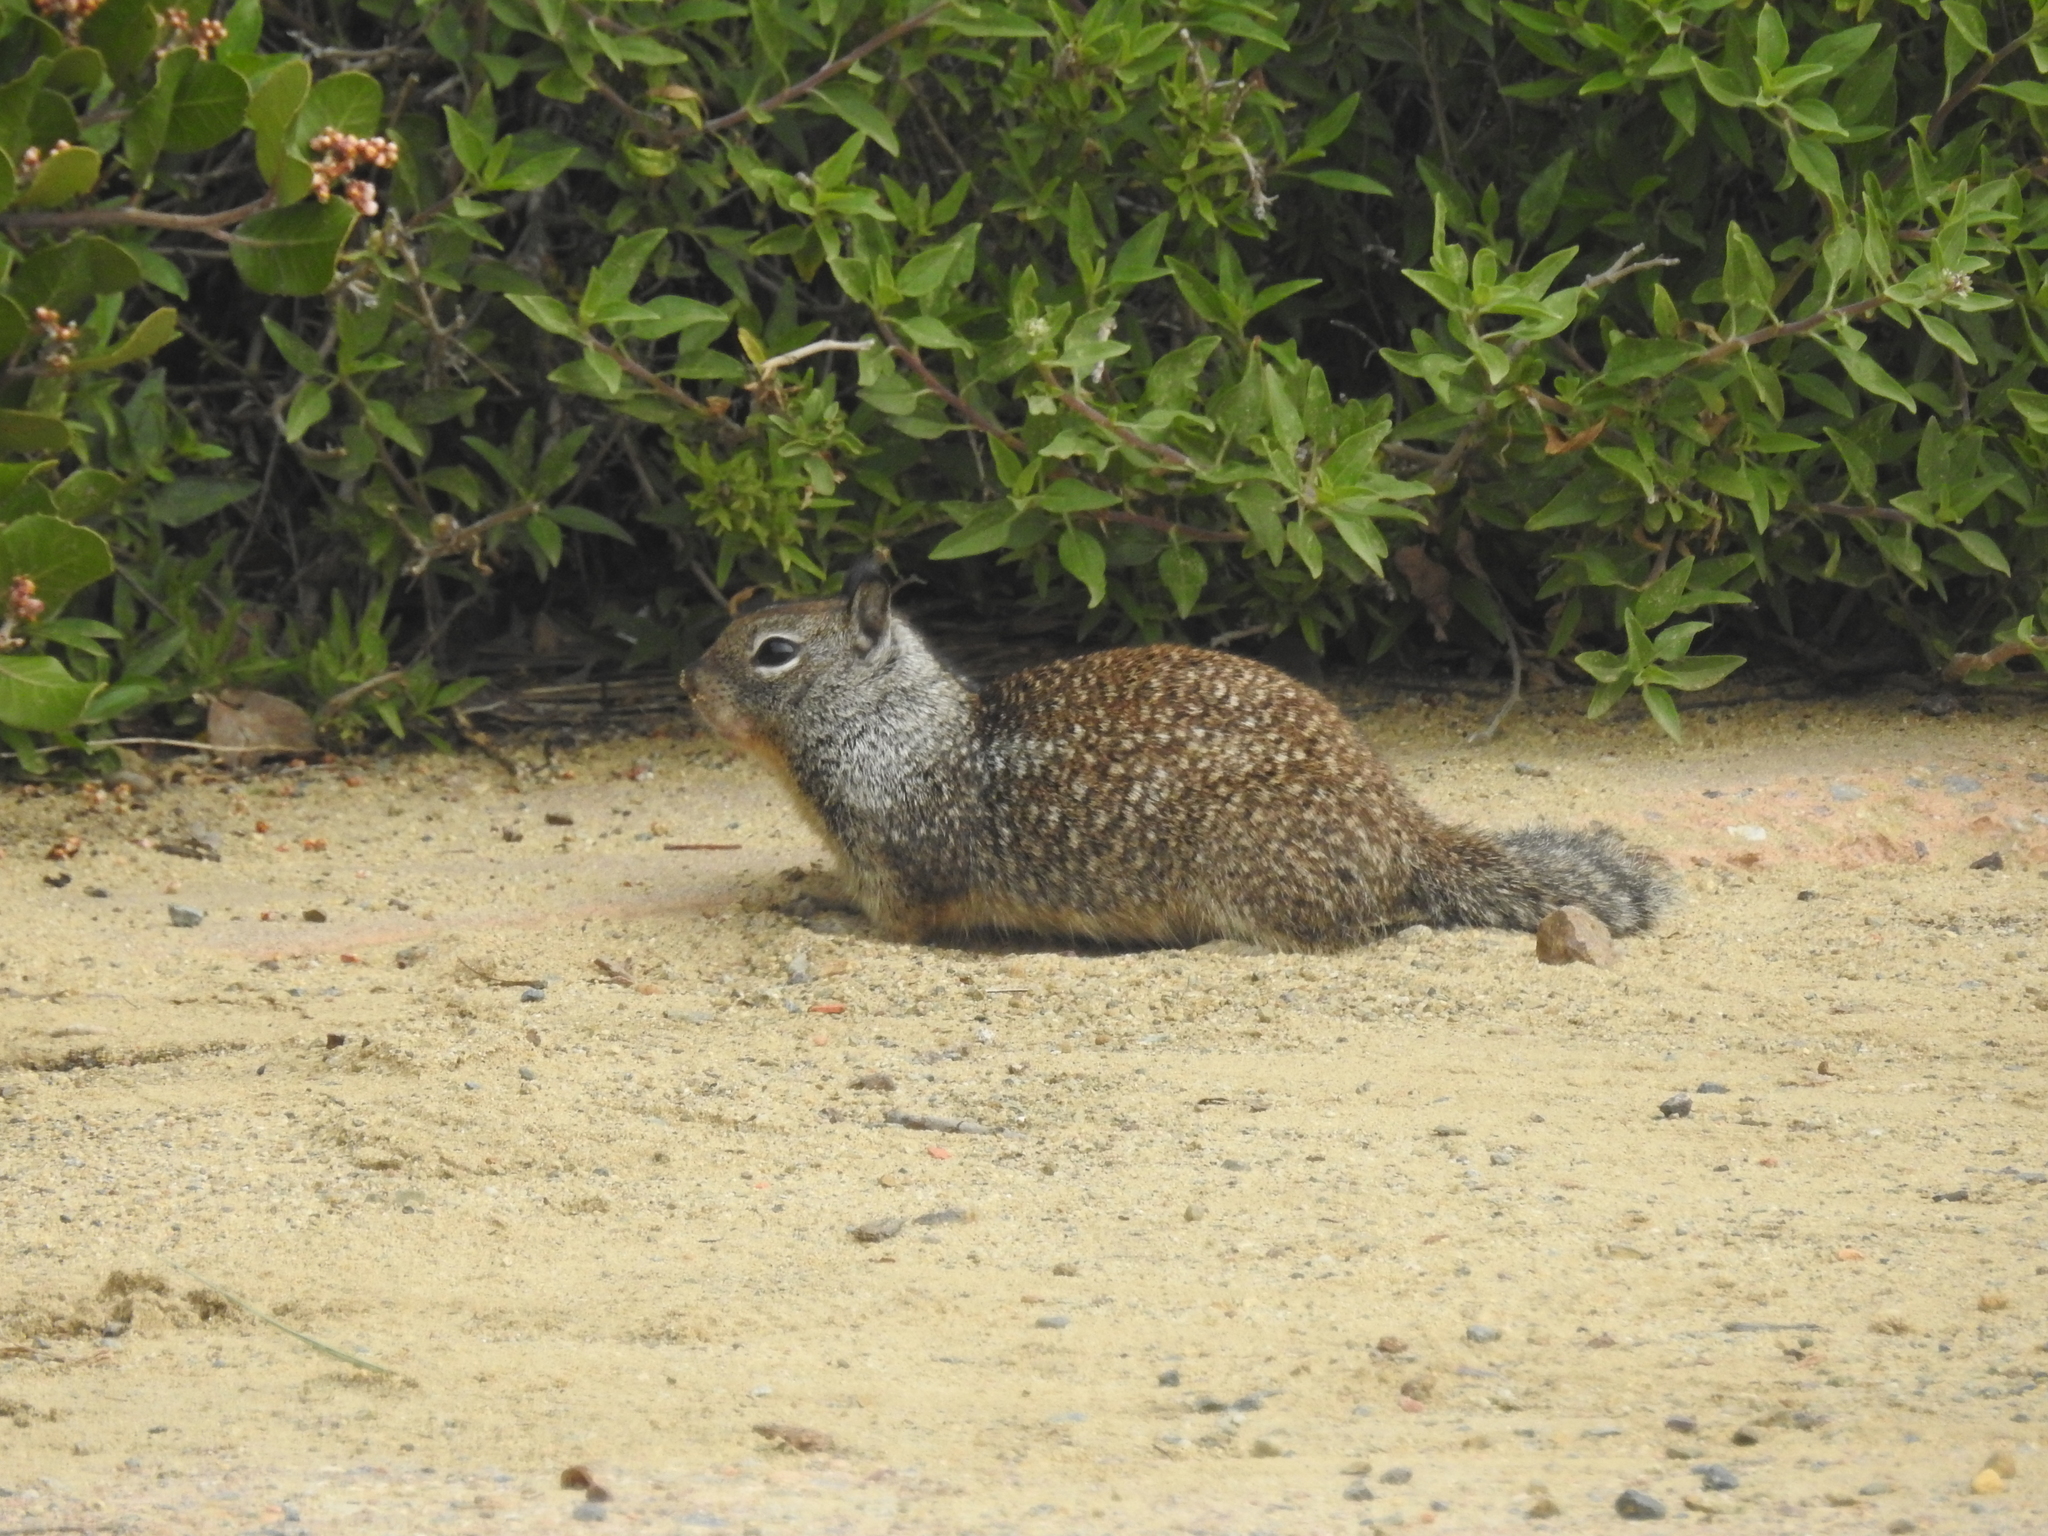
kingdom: Animalia
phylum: Chordata
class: Mammalia
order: Rodentia
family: Sciuridae
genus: Otospermophilus
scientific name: Otospermophilus beecheyi
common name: California ground squirrel
